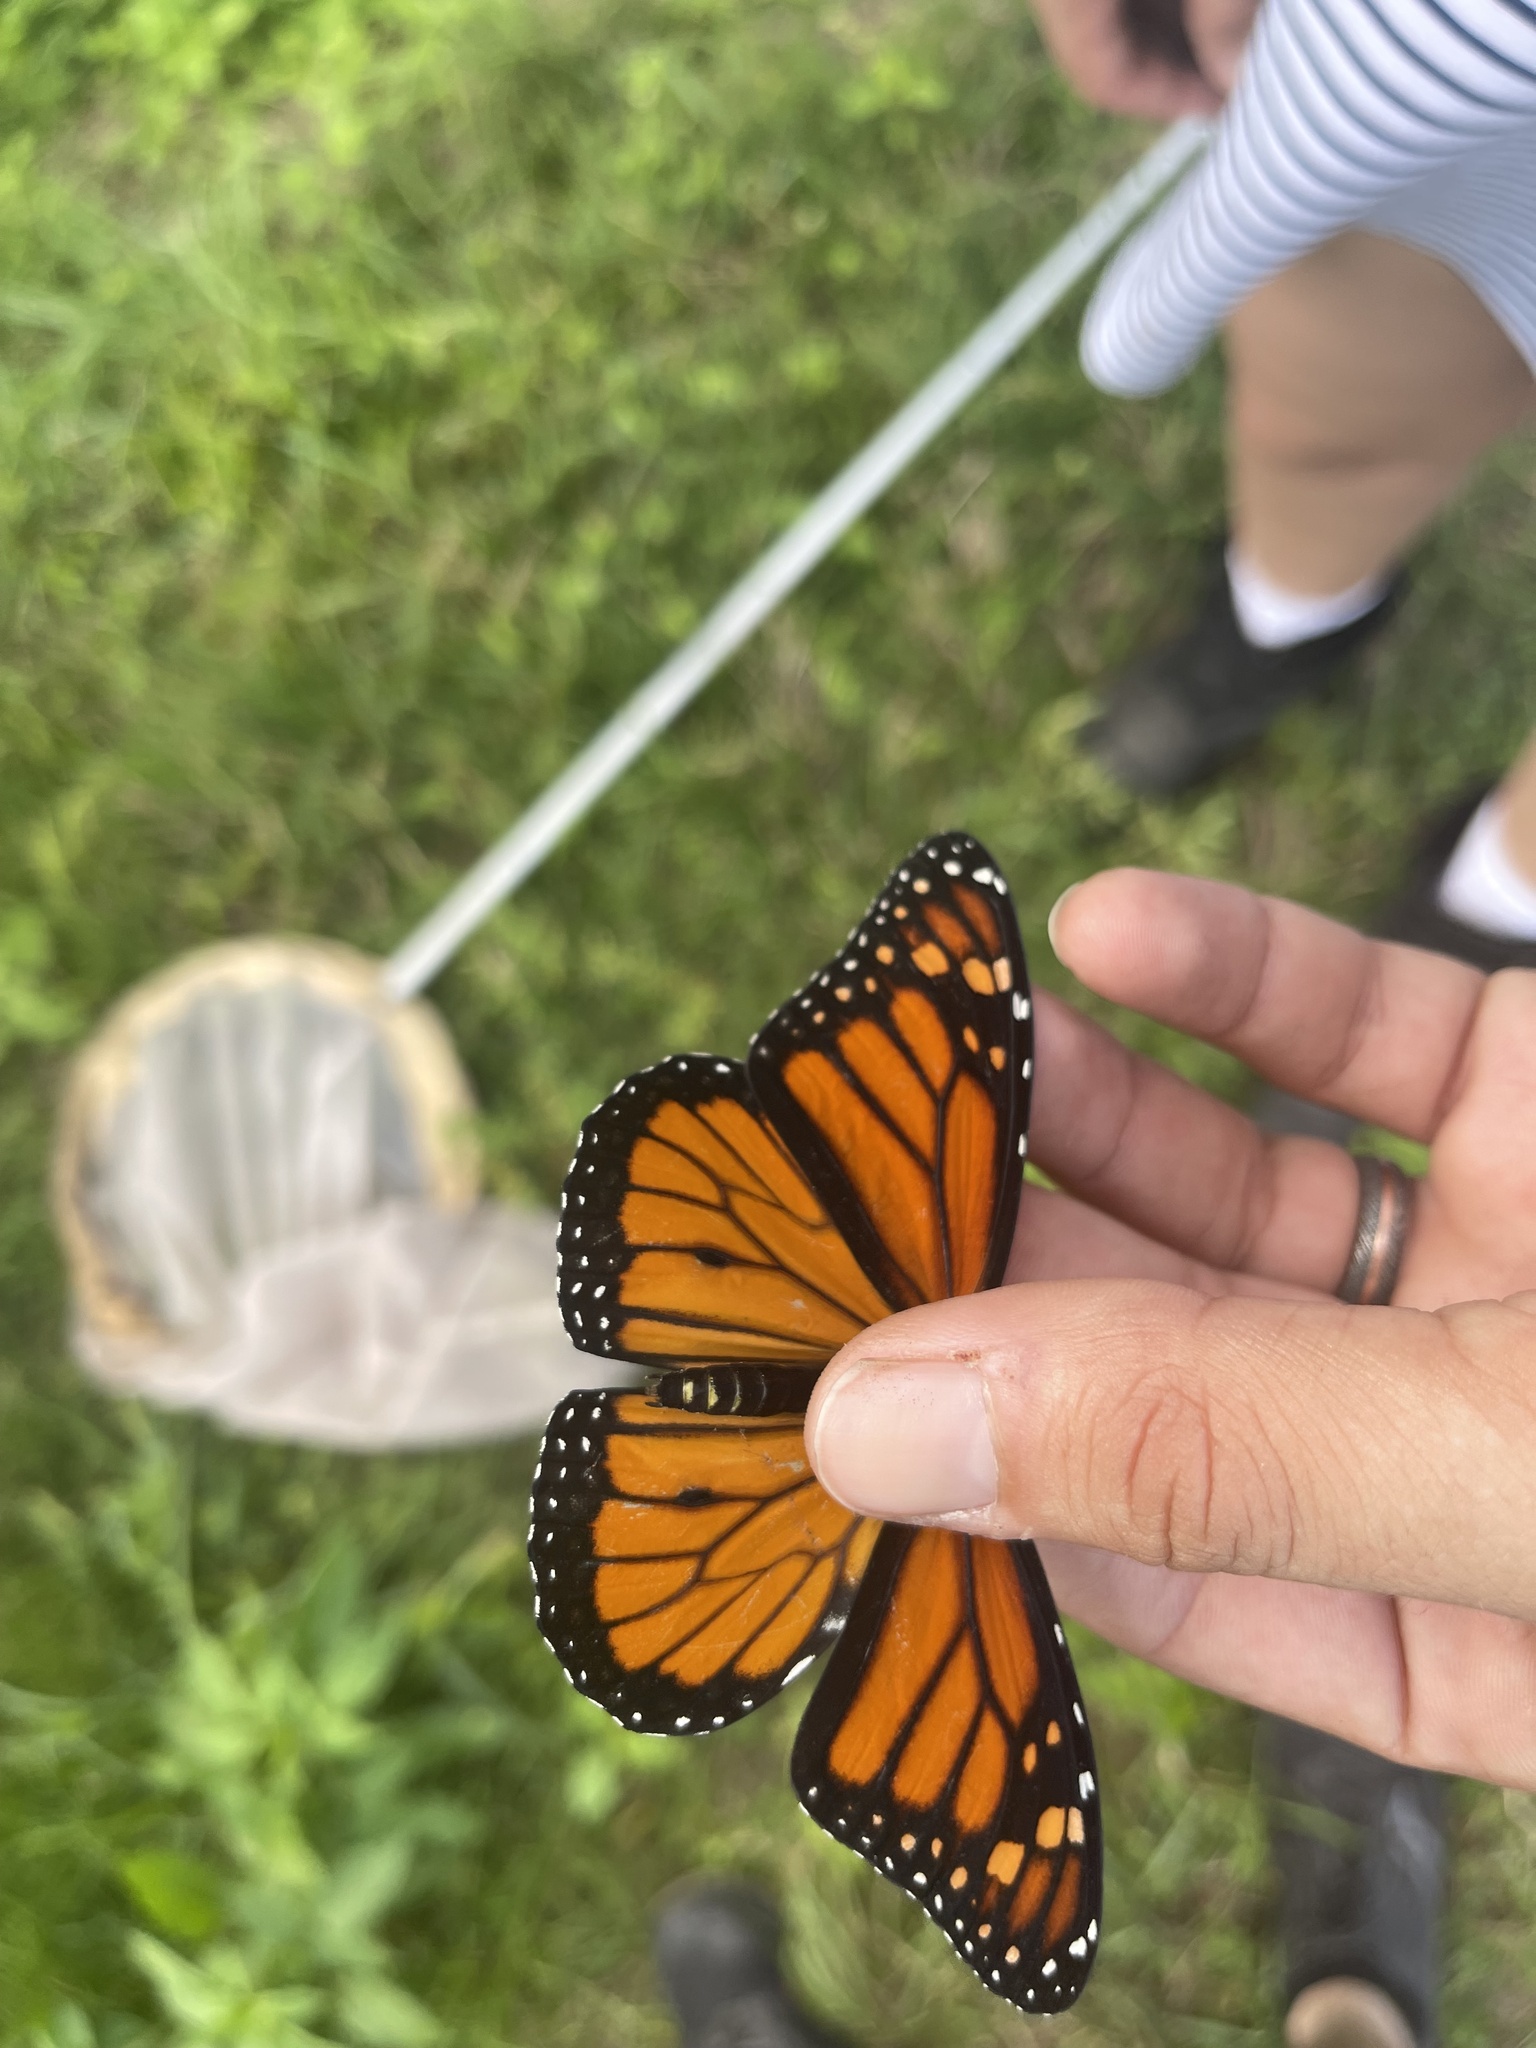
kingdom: Animalia
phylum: Arthropoda
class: Insecta
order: Lepidoptera
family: Nymphalidae
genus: Danaus
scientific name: Danaus plexippus
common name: Monarch
